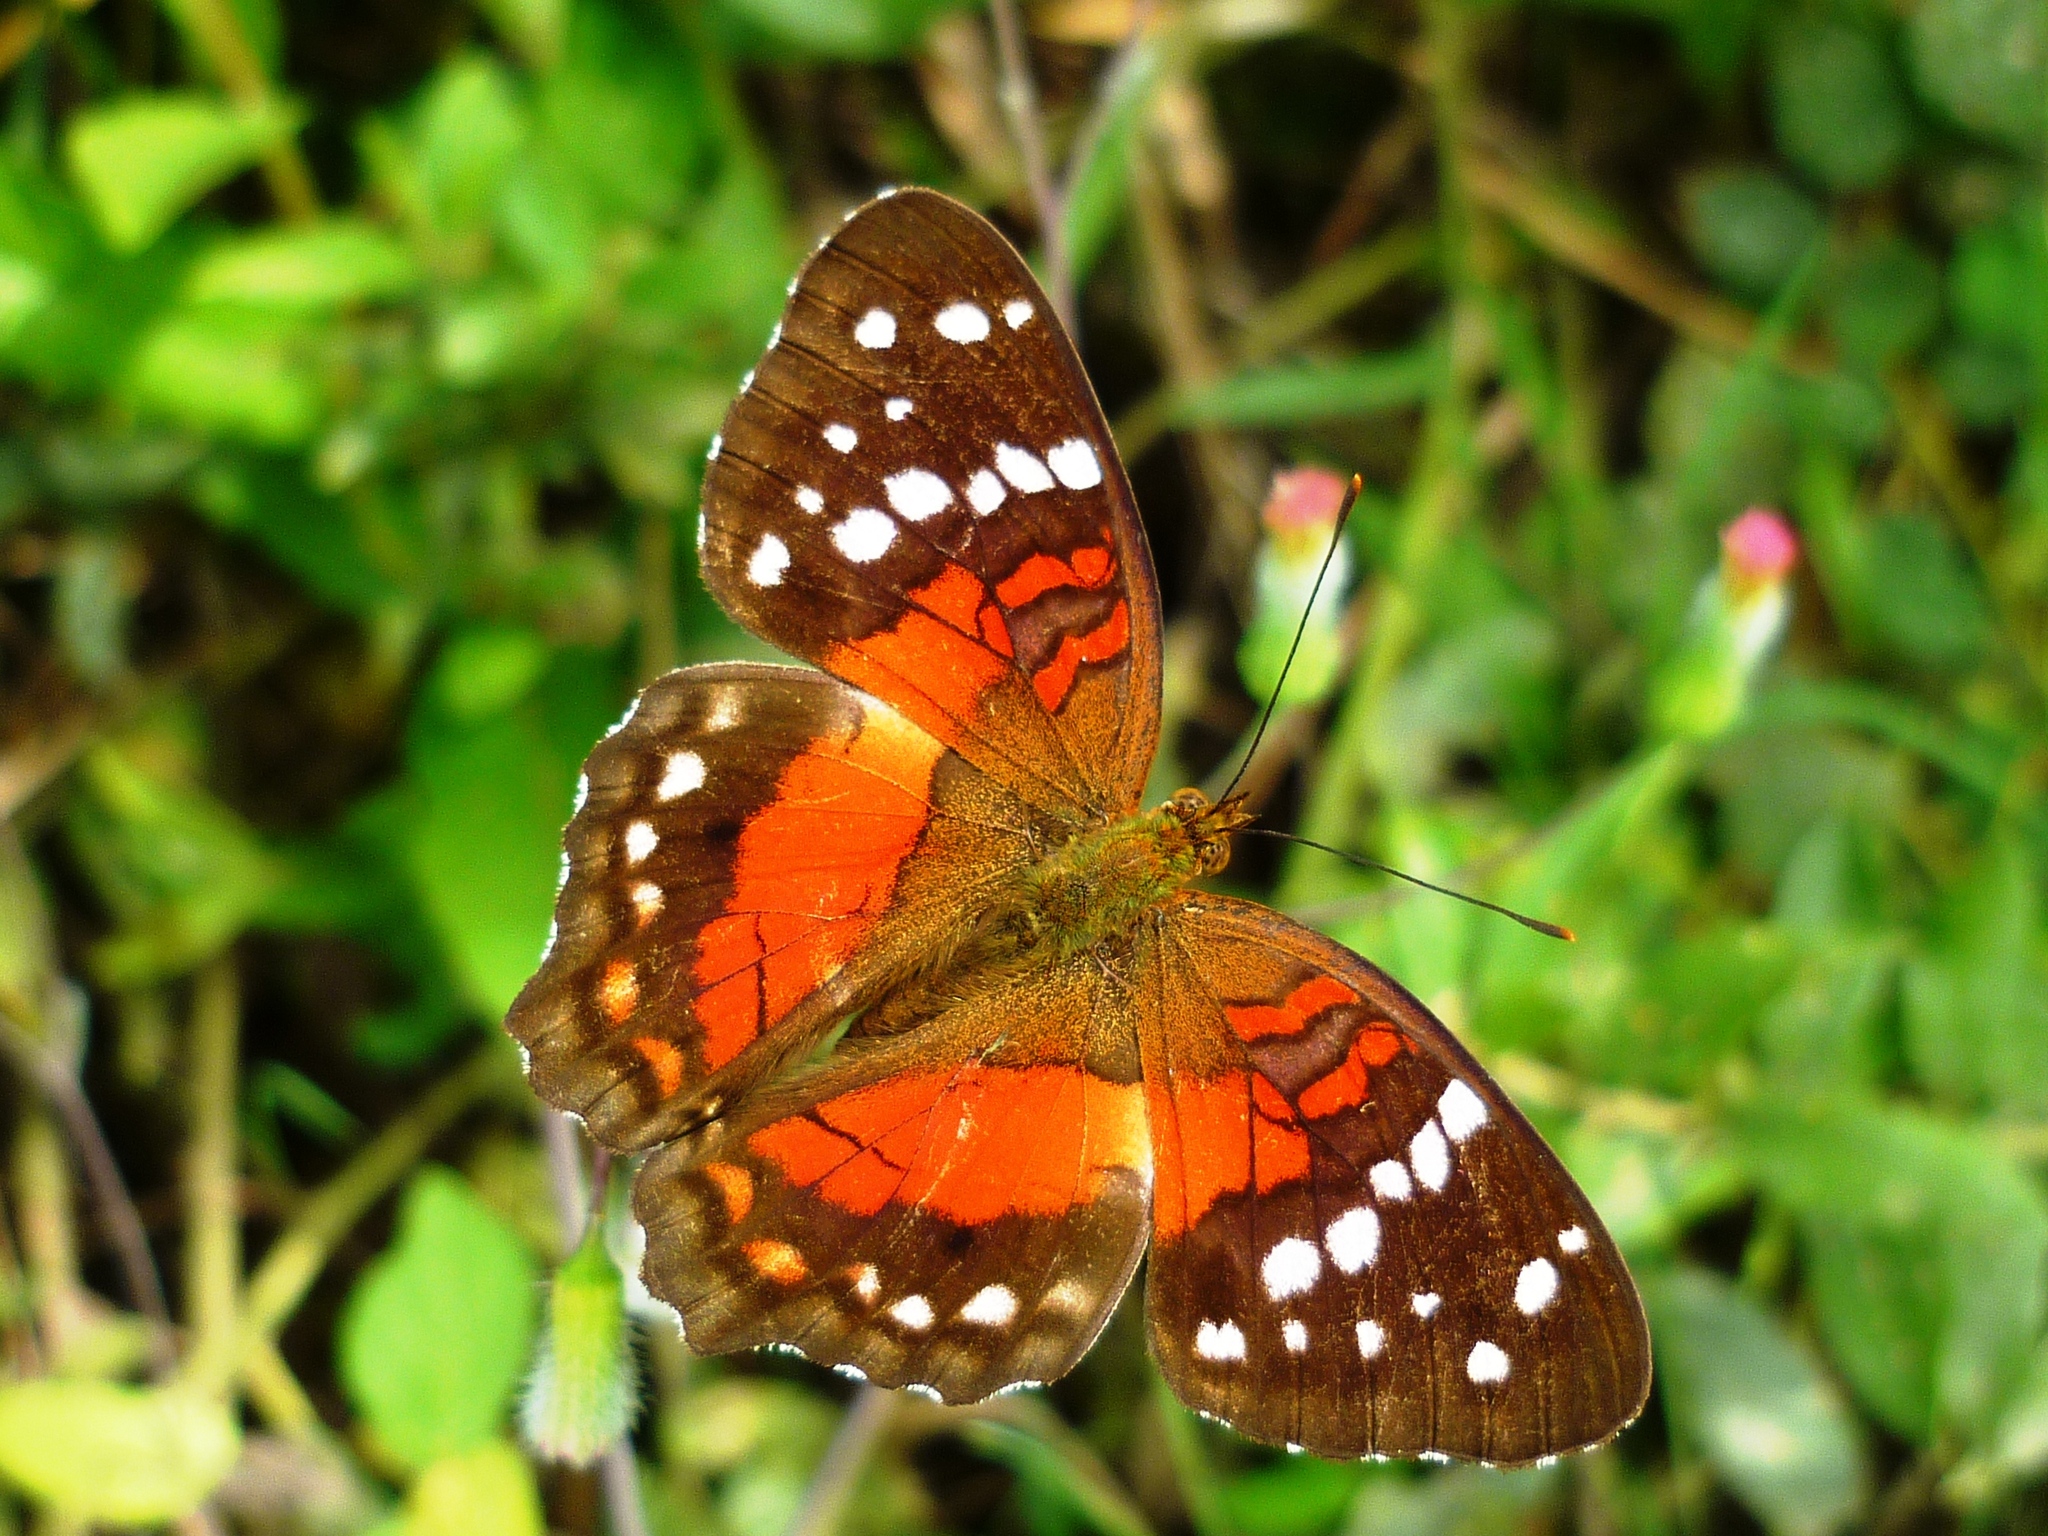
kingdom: Animalia
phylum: Arthropoda
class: Insecta
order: Lepidoptera
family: Nymphalidae
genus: Anartia
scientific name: Anartia amathea
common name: Red peacock
